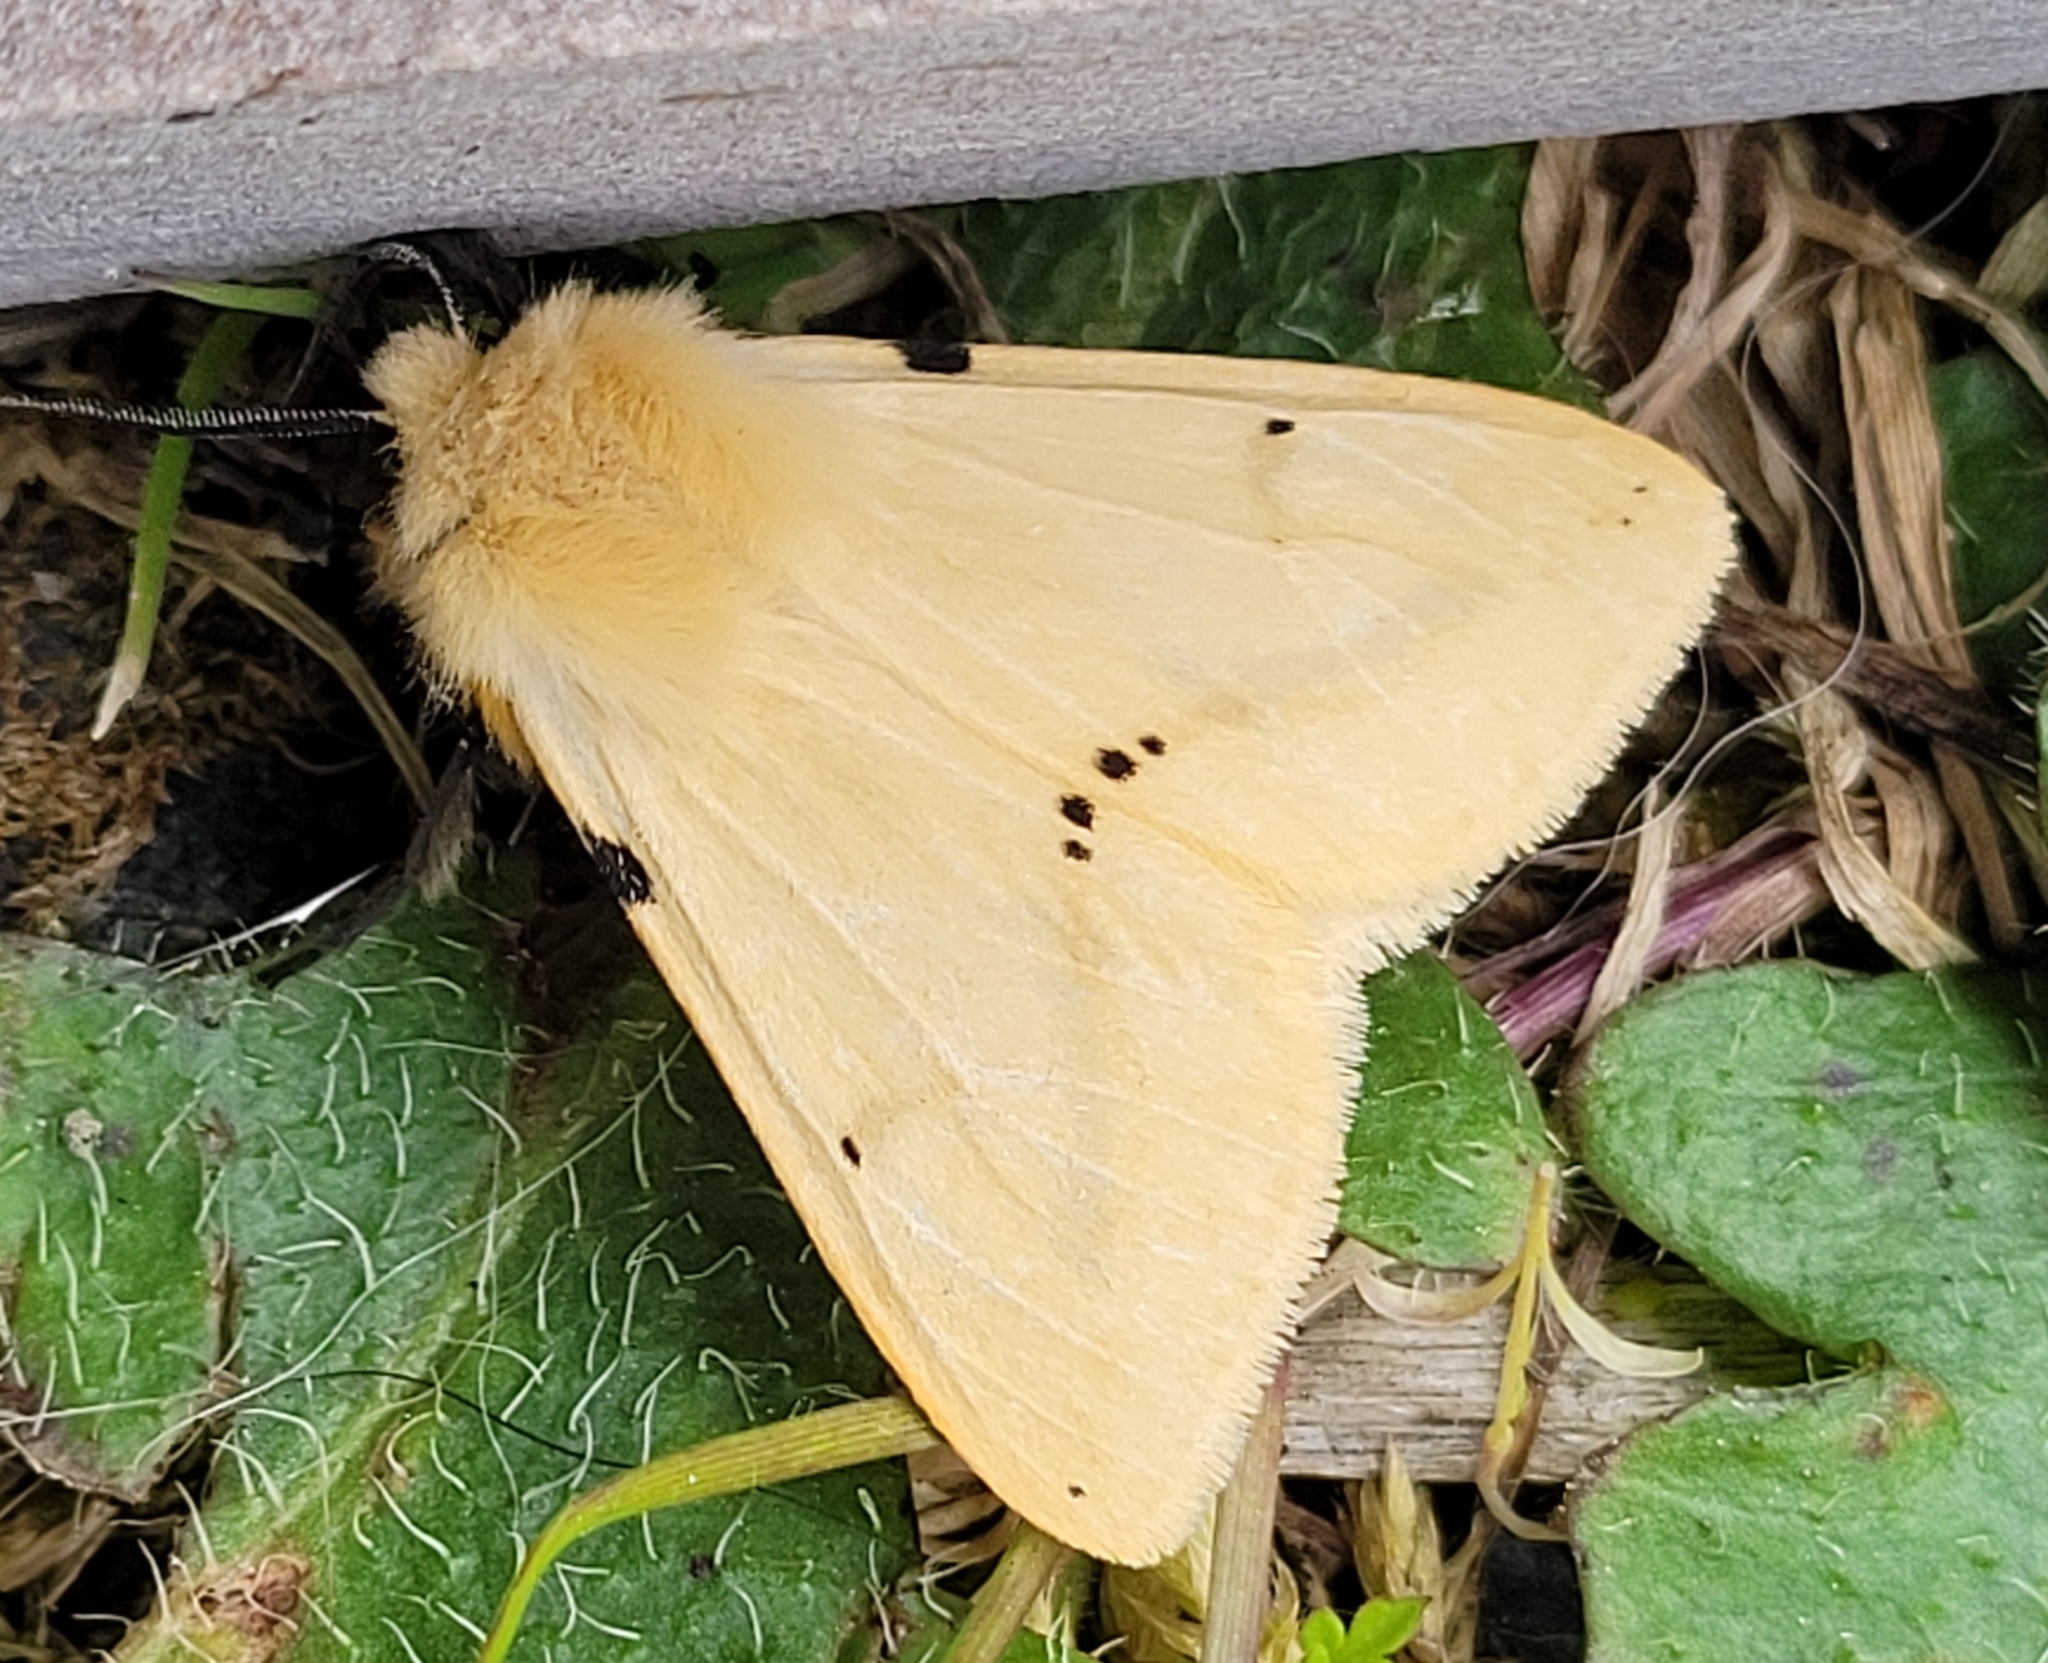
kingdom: Animalia
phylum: Arthropoda
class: Insecta
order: Lepidoptera
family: Erebidae
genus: Spilarctia
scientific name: Spilarctia lutea
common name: Buff ermine
